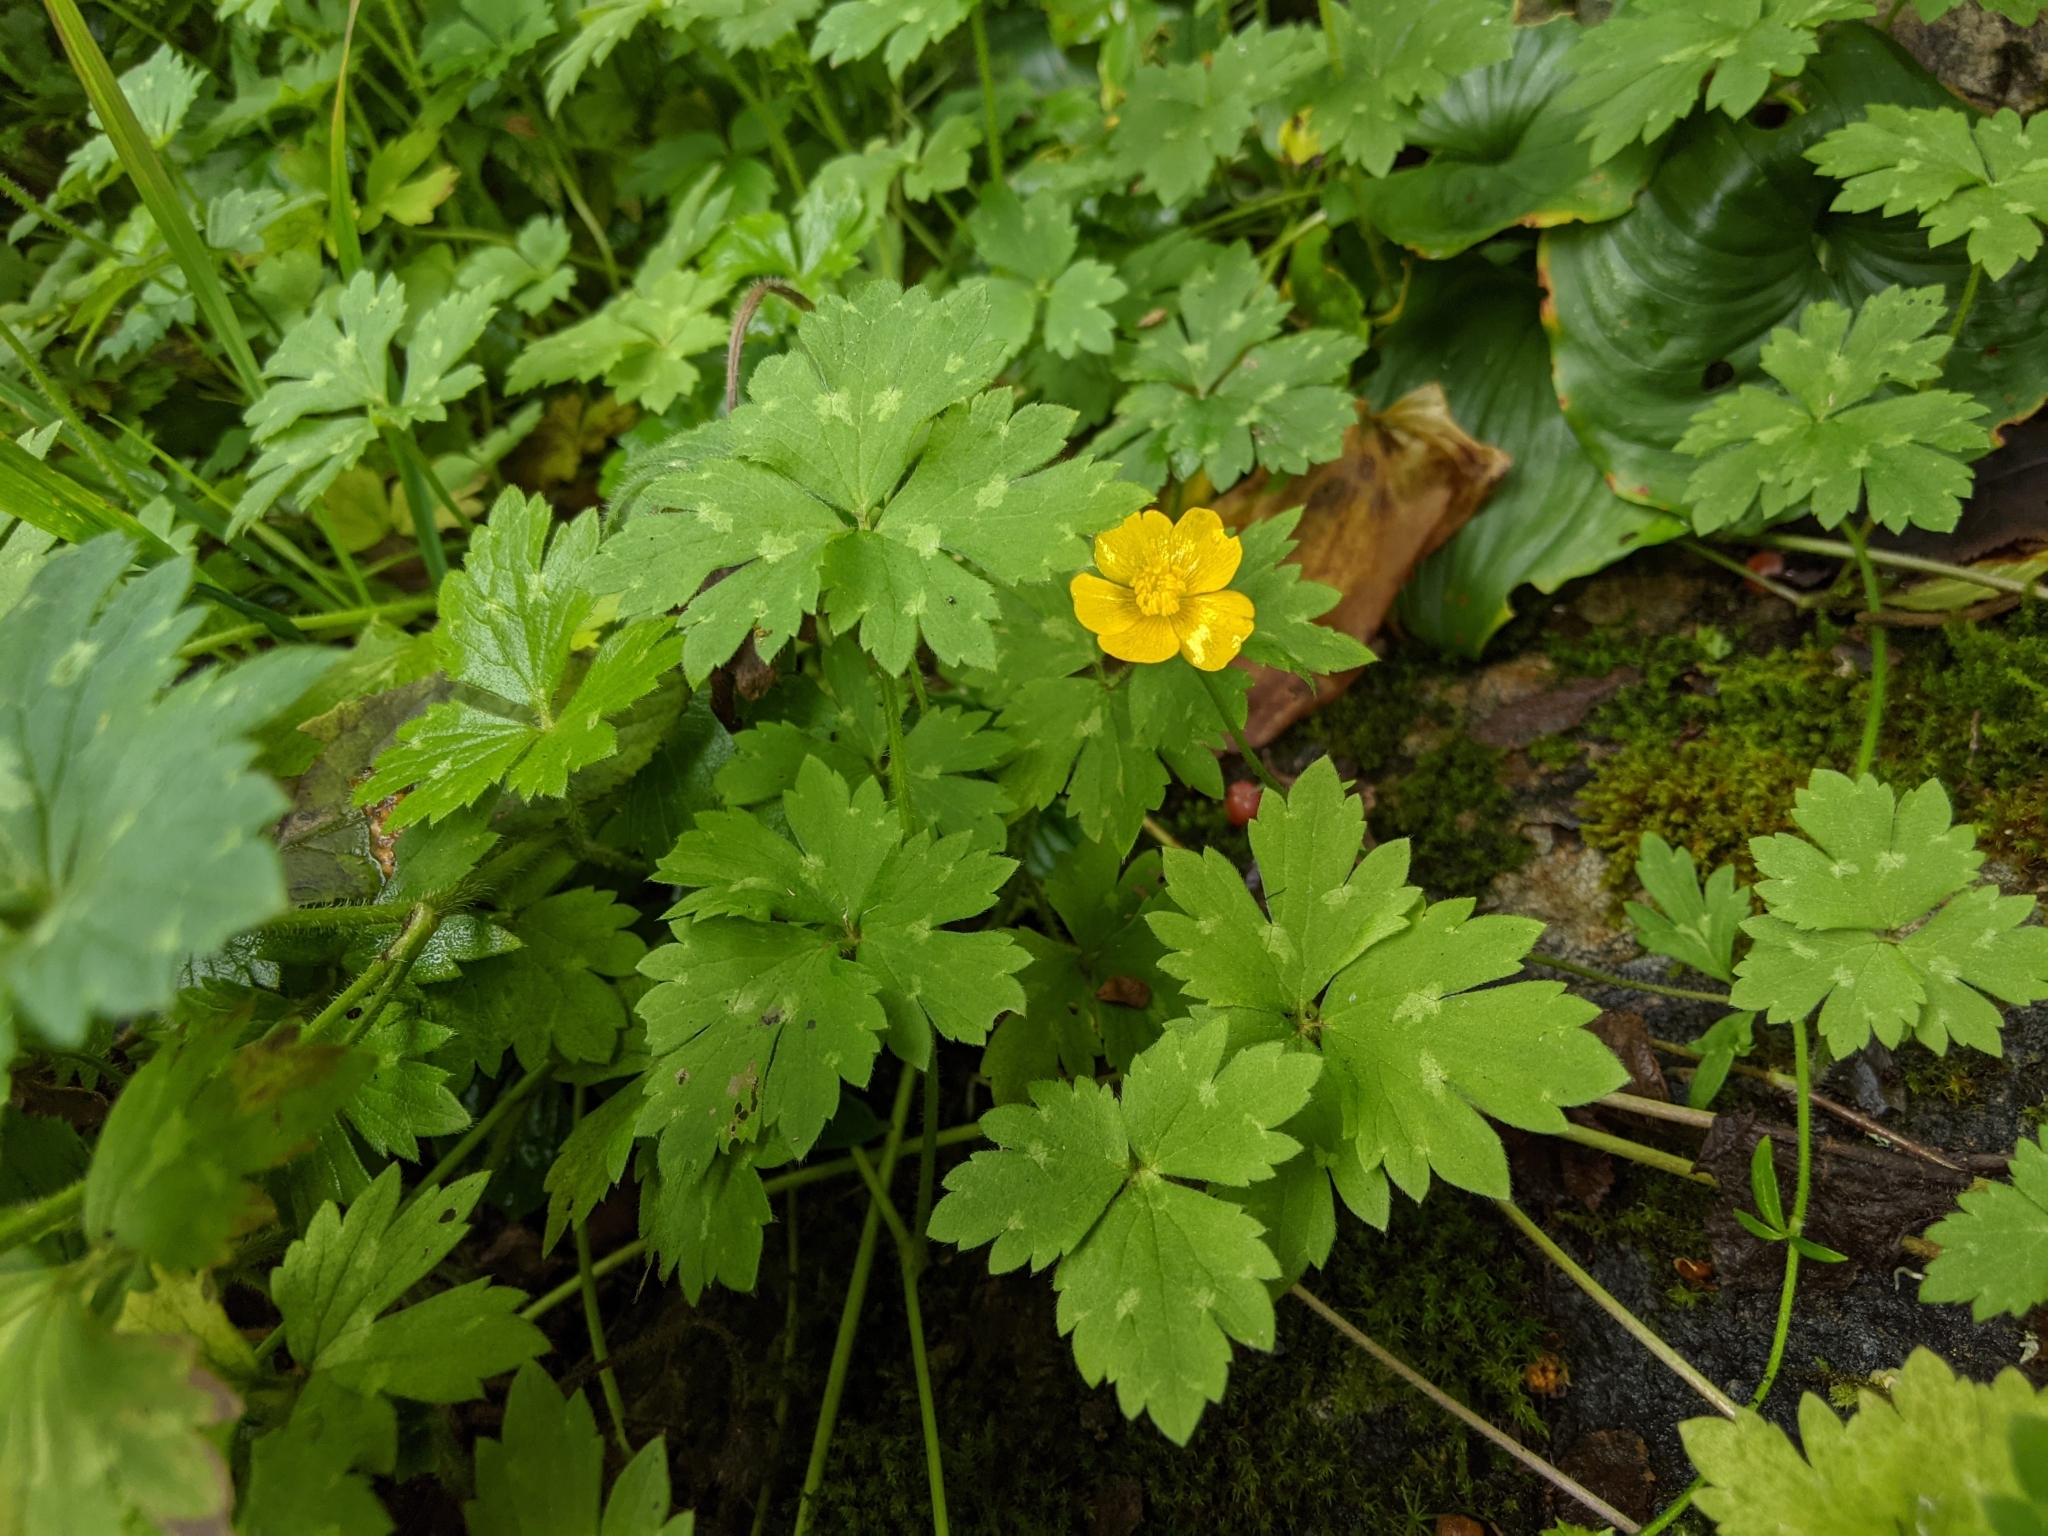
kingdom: Plantae
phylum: Tracheophyta
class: Magnoliopsida
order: Ranunculales
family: Ranunculaceae
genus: Ranunculus
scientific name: Ranunculus repens
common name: Creeping buttercup
